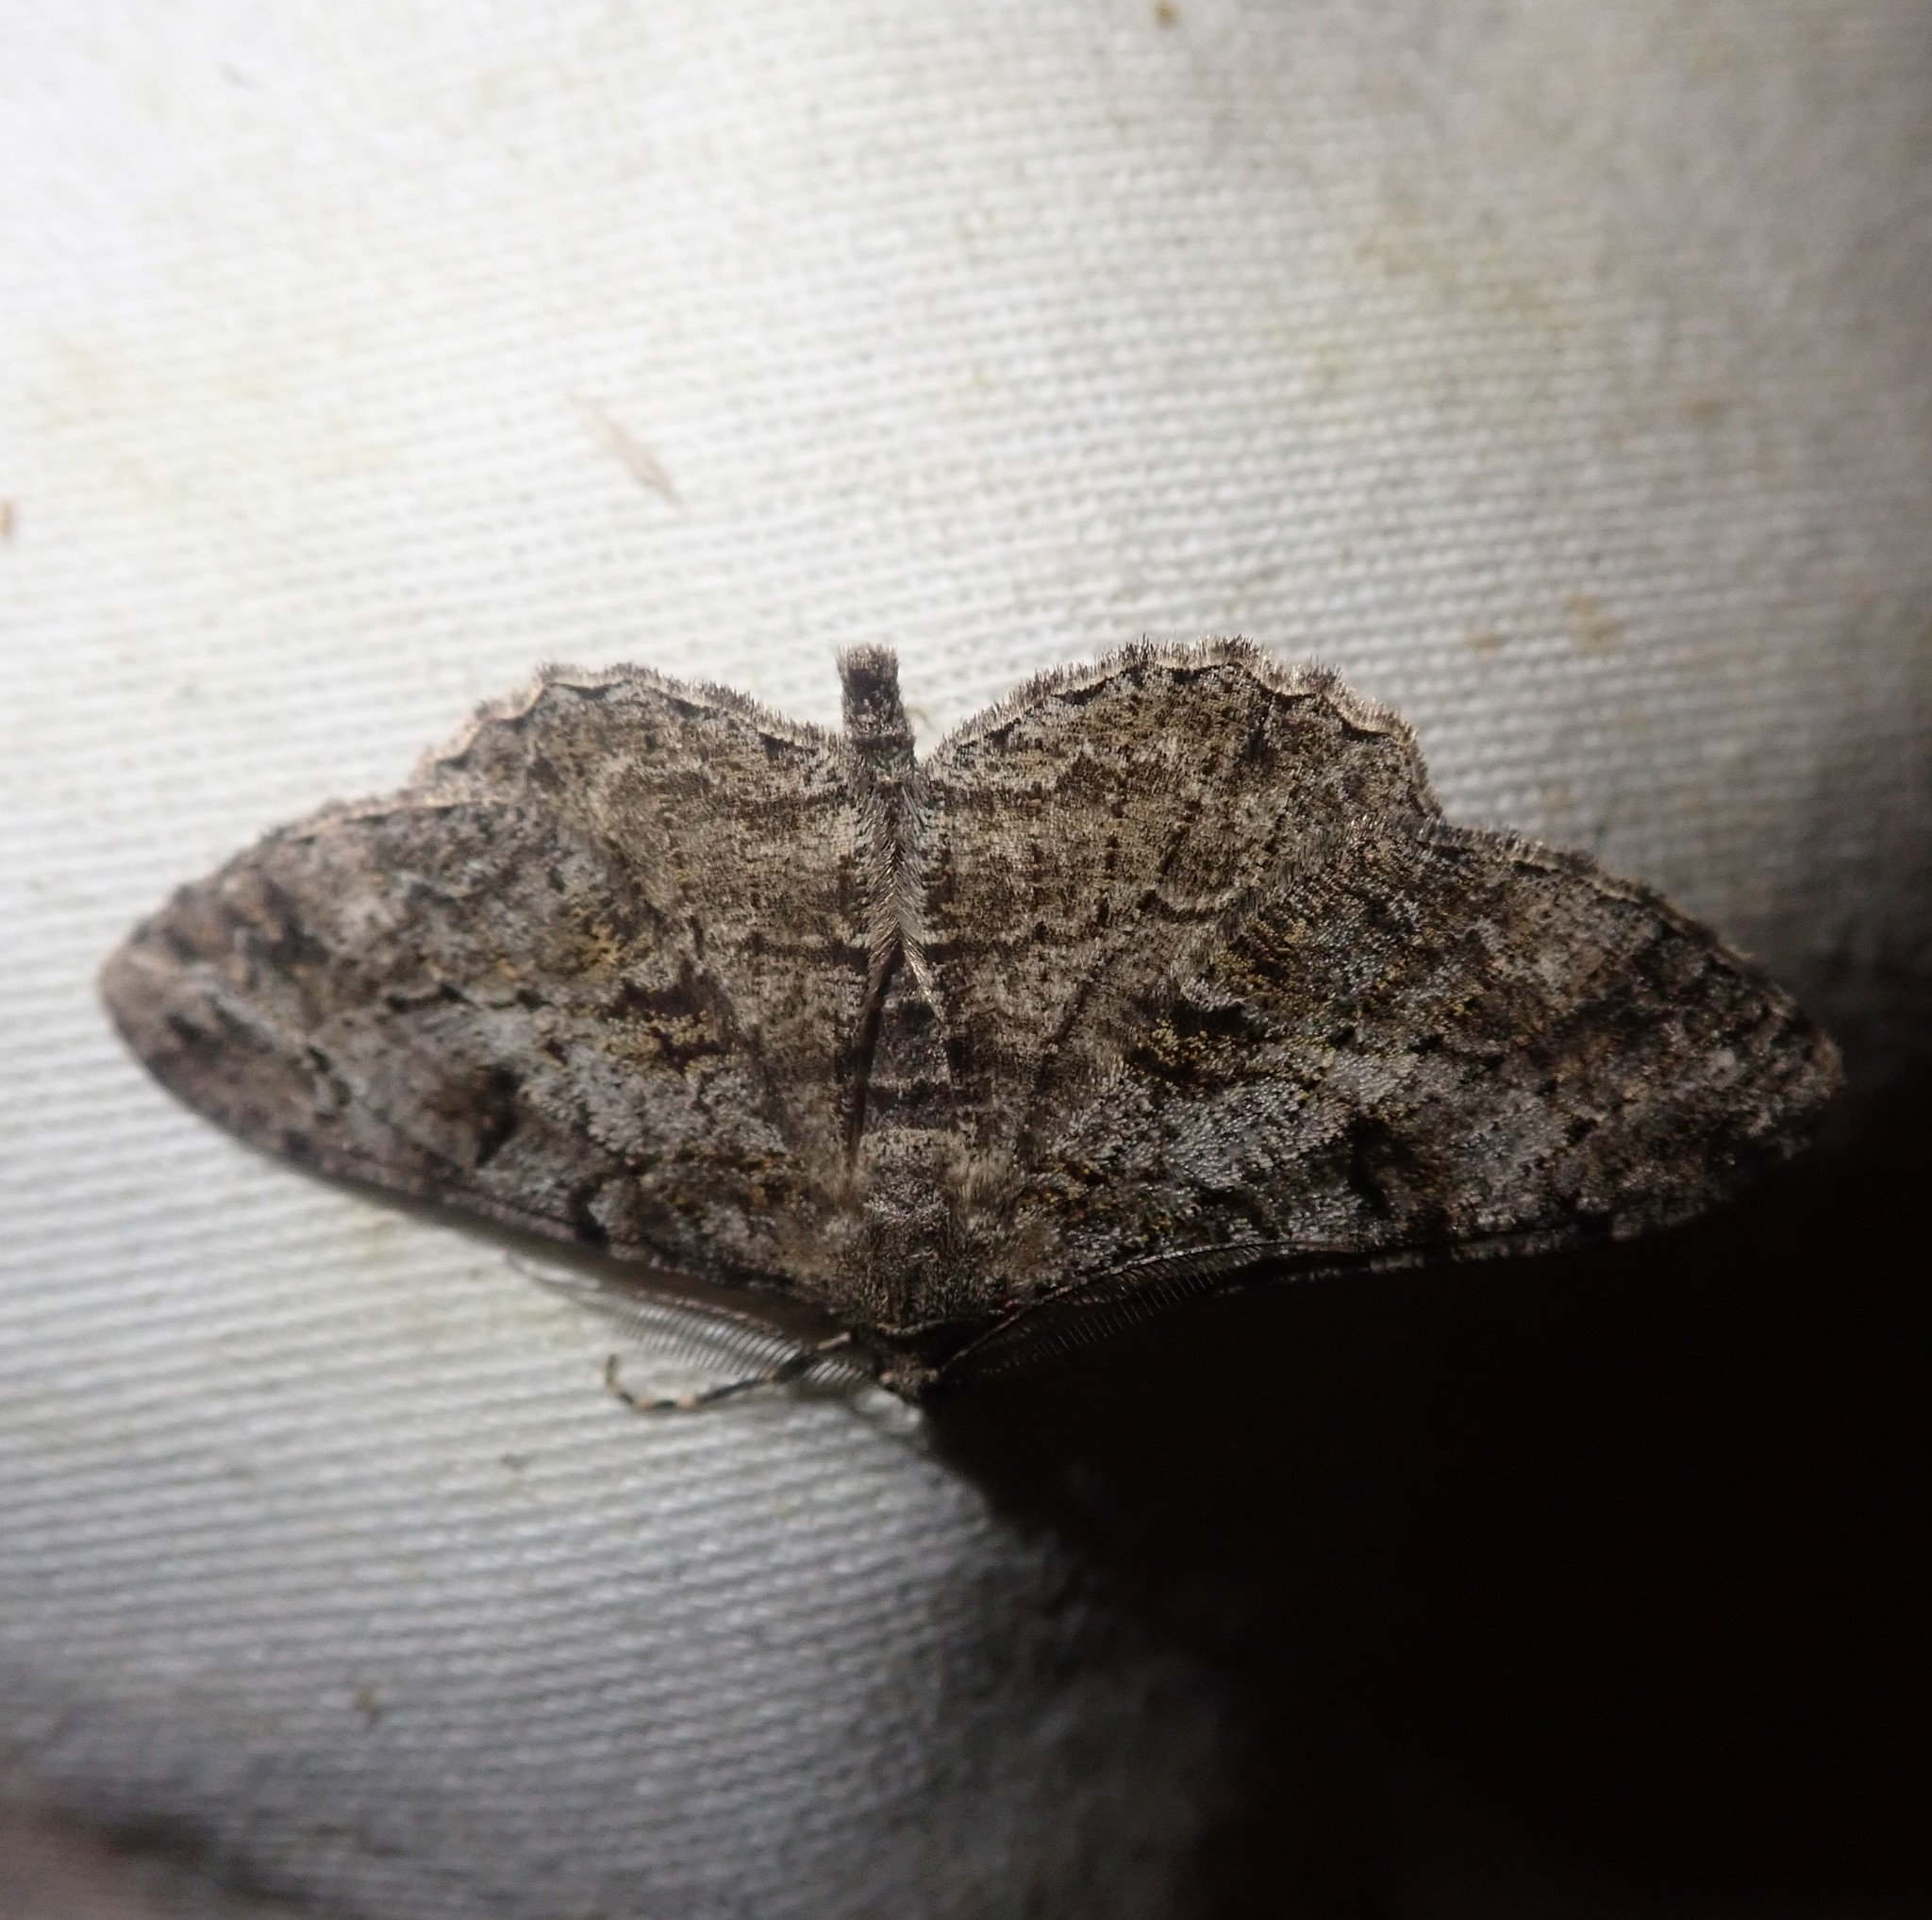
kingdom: Animalia
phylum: Arthropoda
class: Insecta
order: Lepidoptera
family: Geometridae
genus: Peribatodes
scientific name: Peribatodes rhomboidaria
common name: Willow beauty
